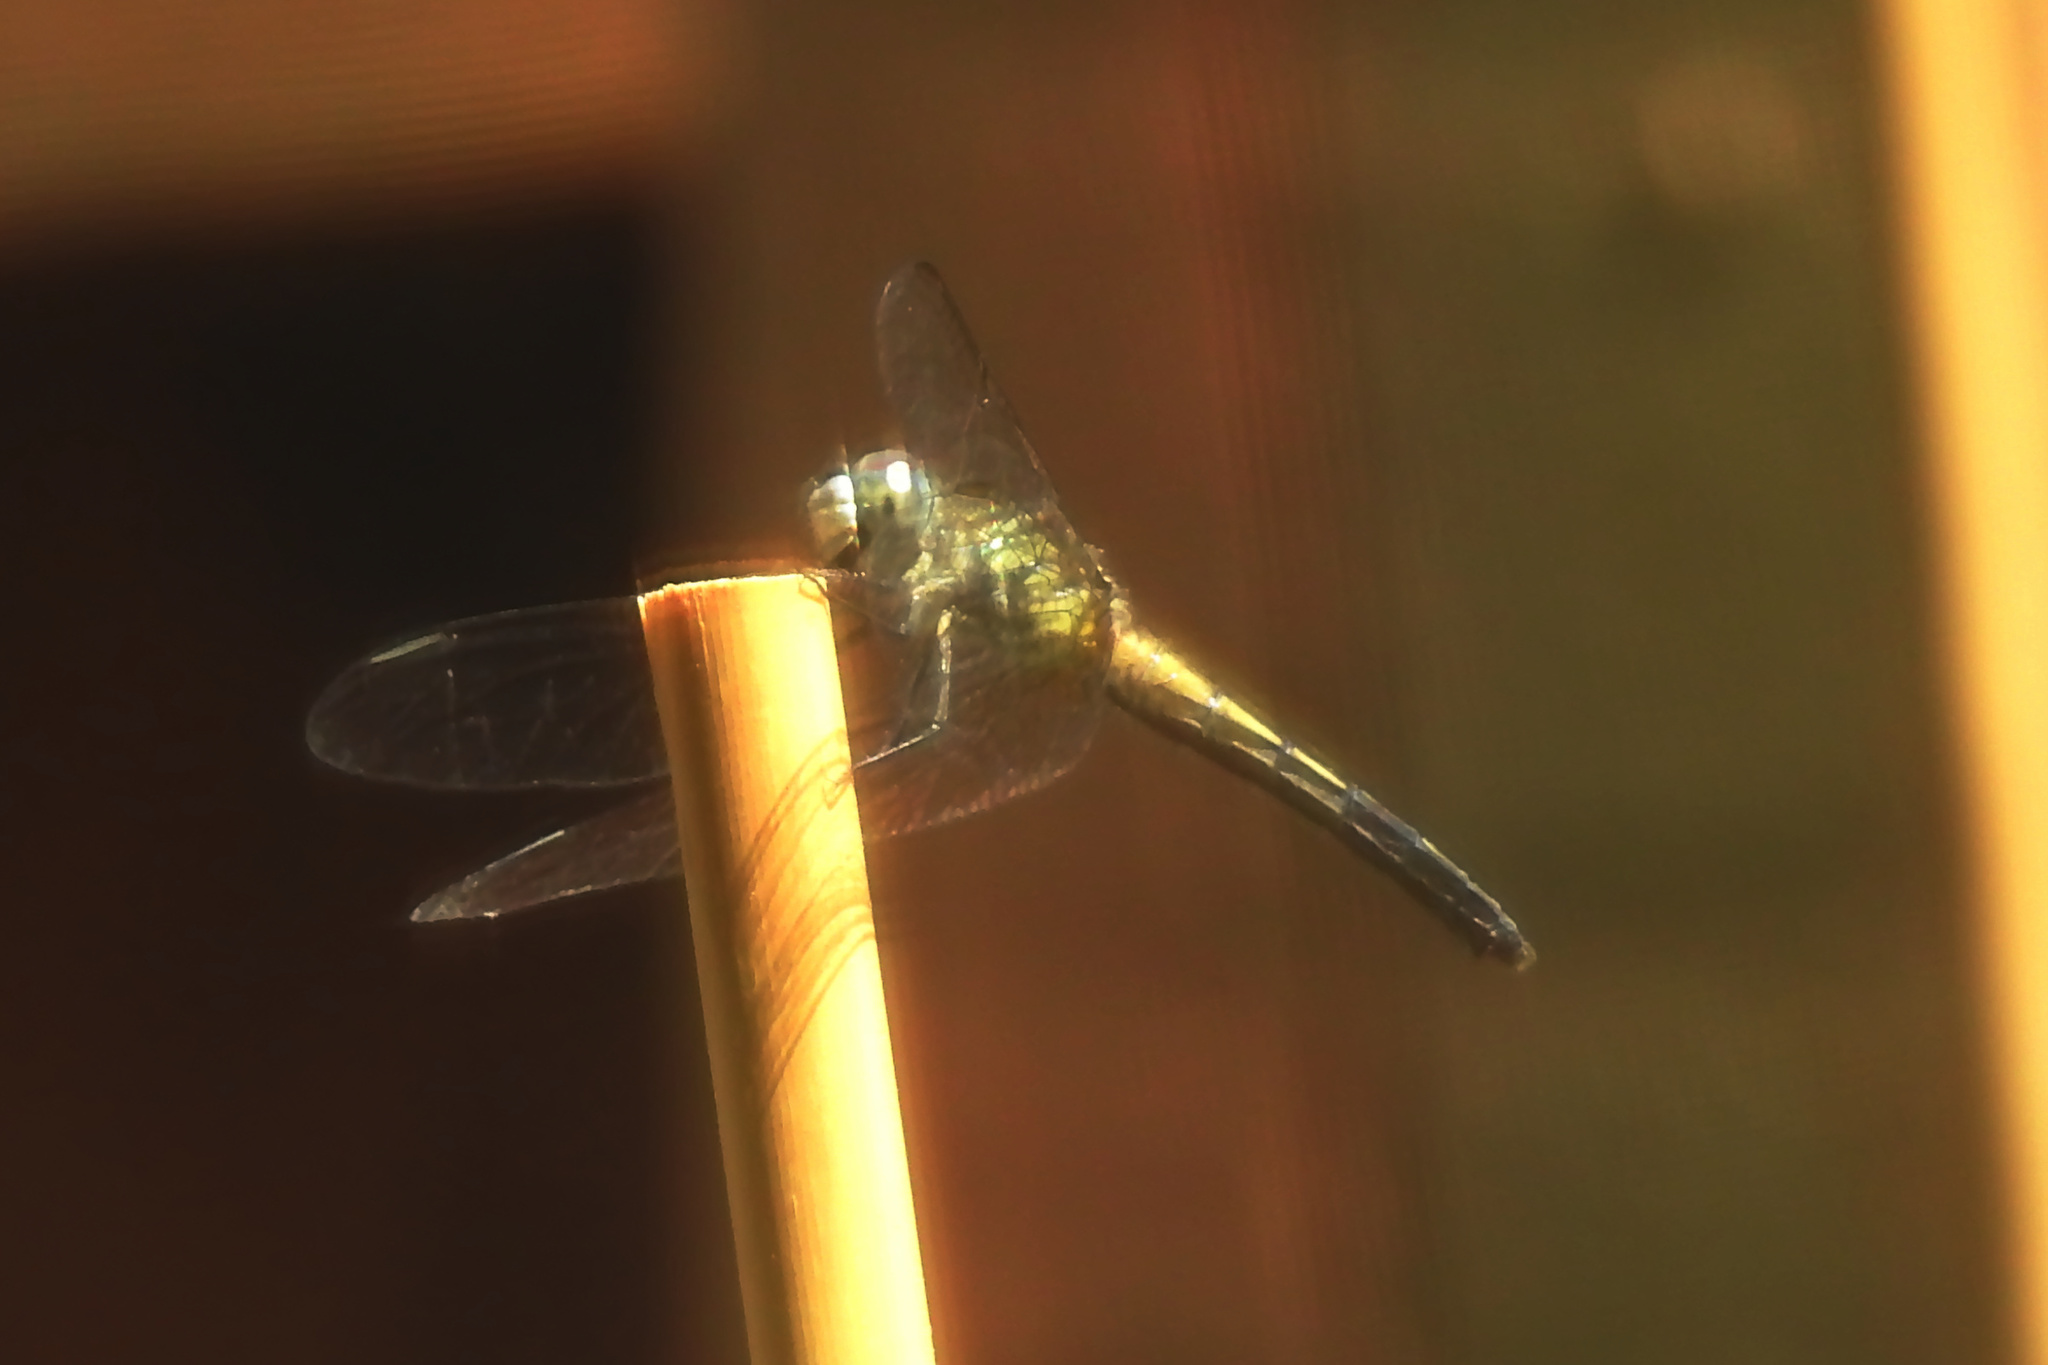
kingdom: Animalia
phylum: Arthropoda
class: Insecta
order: Odonata
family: Libellulidae
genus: Pachydiplax
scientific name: Pachydiplax longipennis
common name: Blue dasher
